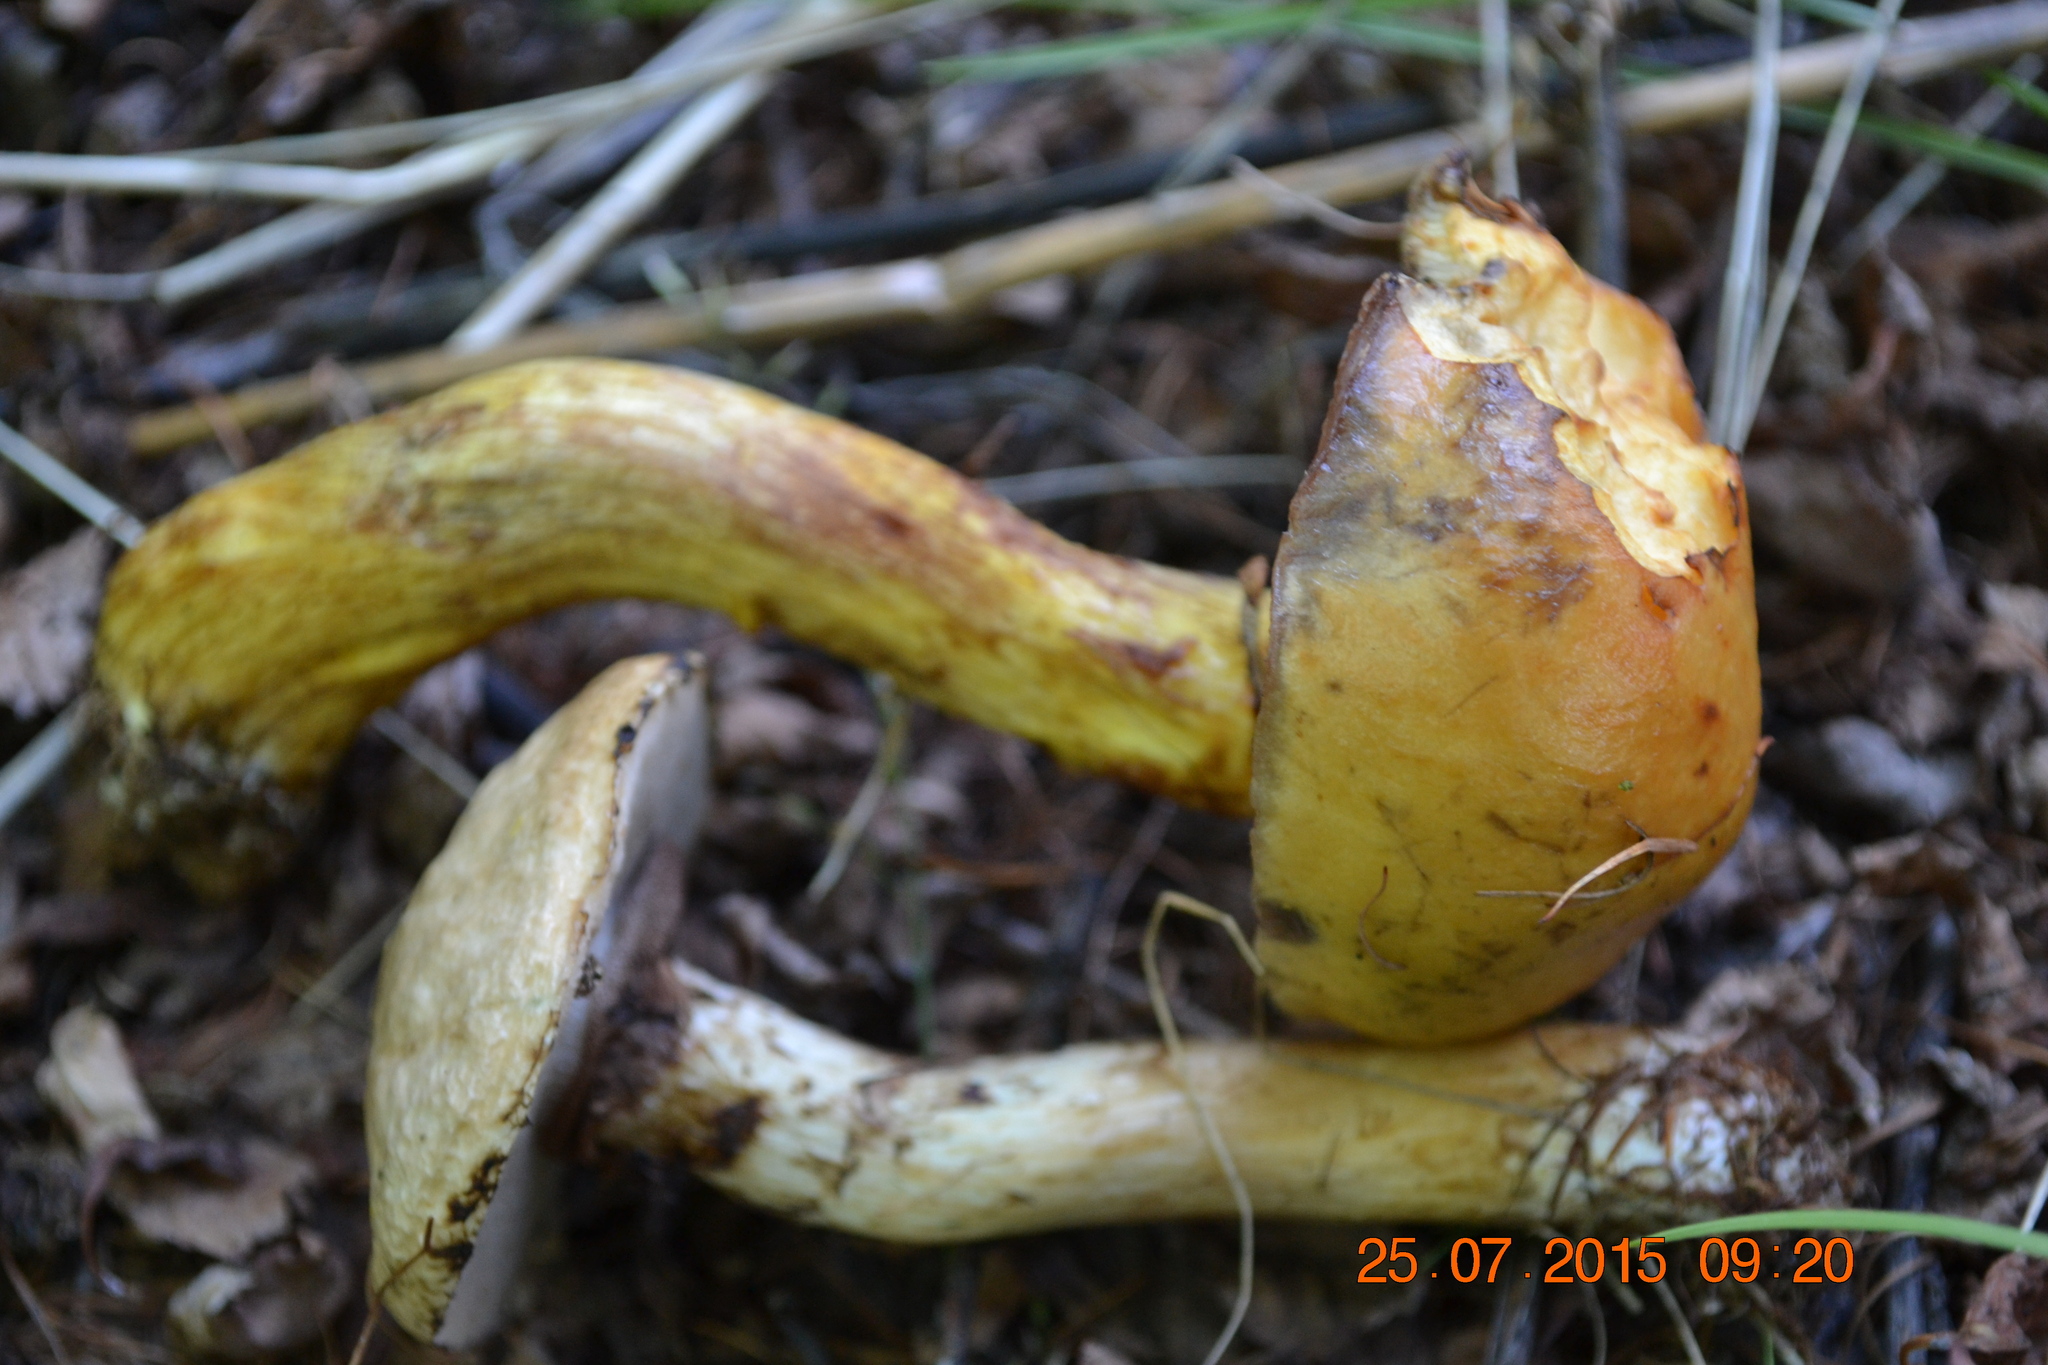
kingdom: Fungi
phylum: Basidiomycota
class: Agaricomycetes
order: Boletales
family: Suillaceae
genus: Suillus
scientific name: Suillus americanus
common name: Chicken fat mushroom
